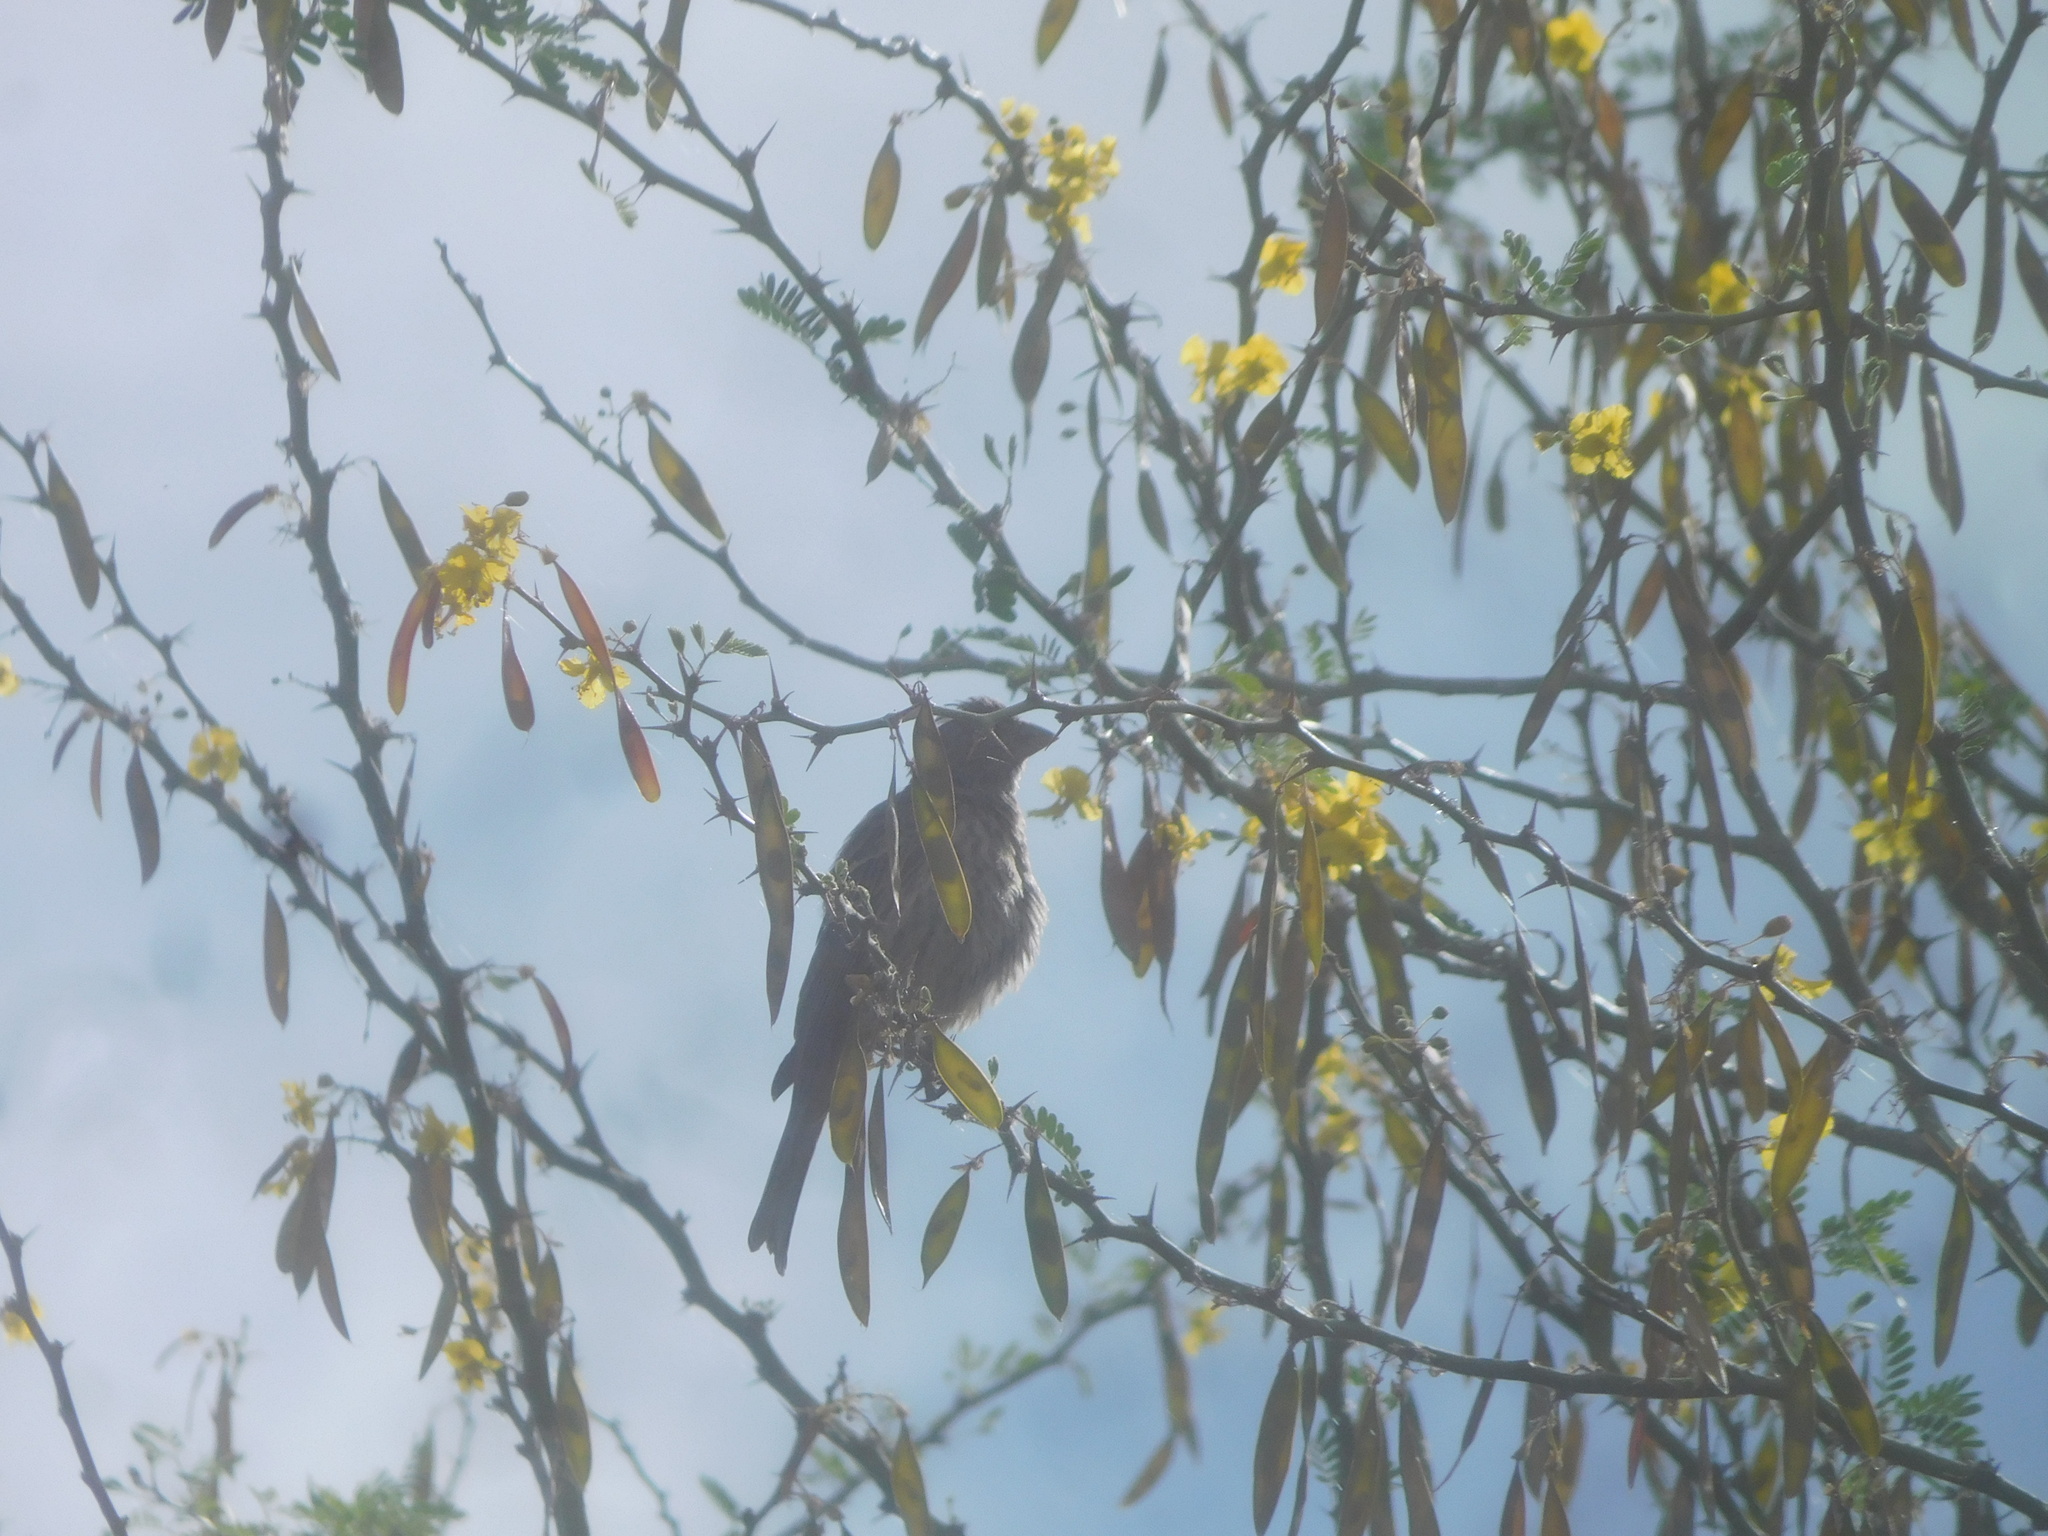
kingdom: Animalia
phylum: Chordata
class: Aves
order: Passeriformes
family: Fringillidae
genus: Haemorhous
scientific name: Haemorhous mexicanus
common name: House finch
